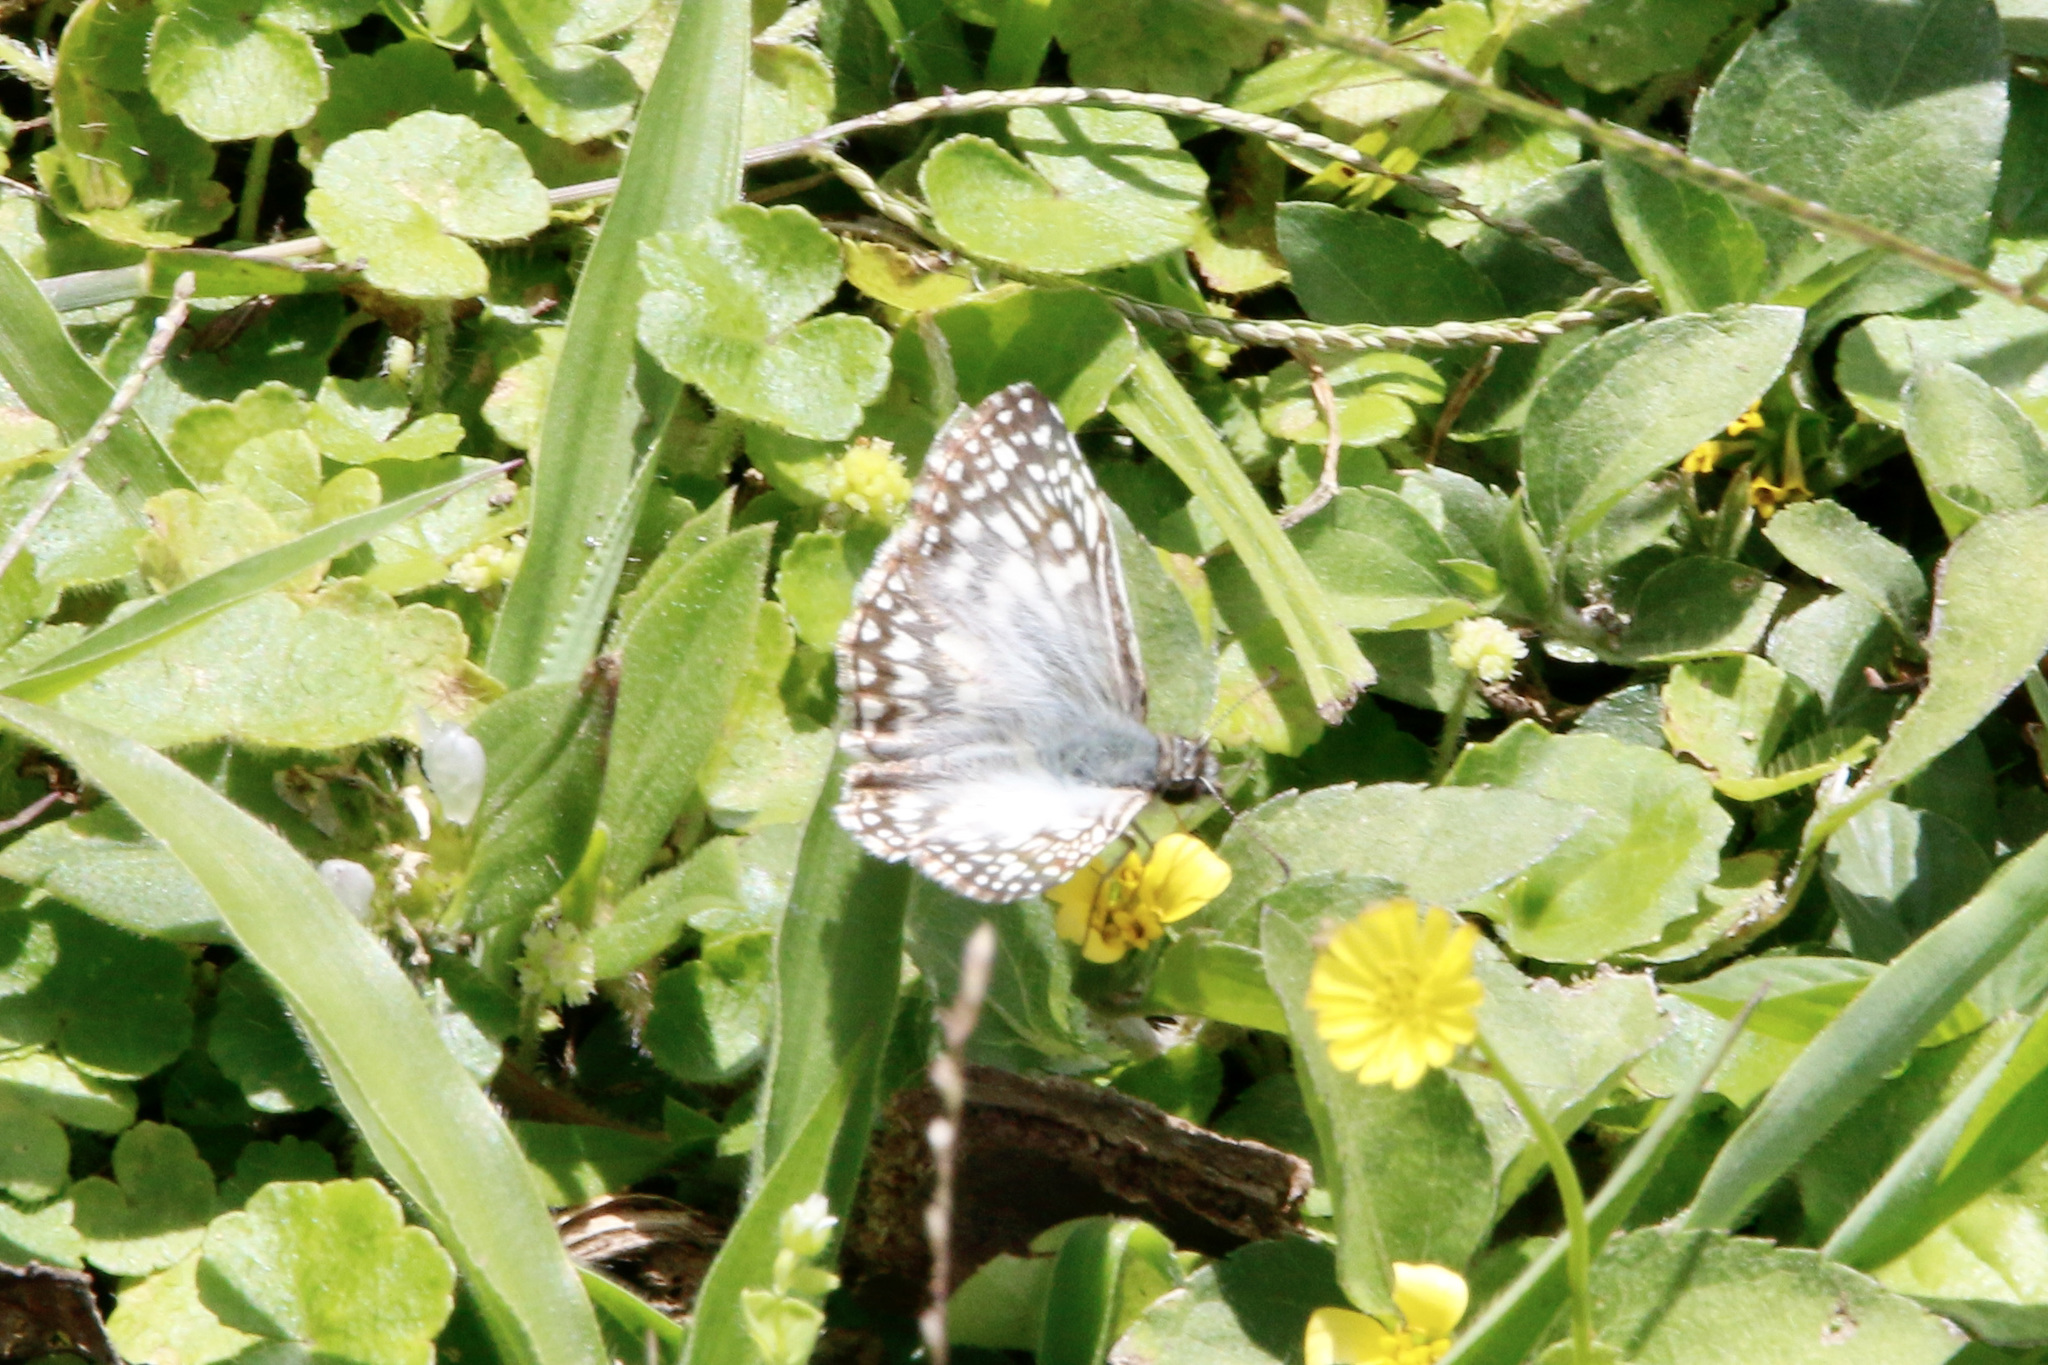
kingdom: Animalia
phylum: Arthropoda
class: Insecta
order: Lepidoptera
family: Hesperiidae
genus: Pyrgus
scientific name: Pyrgus oileus
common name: Tropical checkered-skipper
